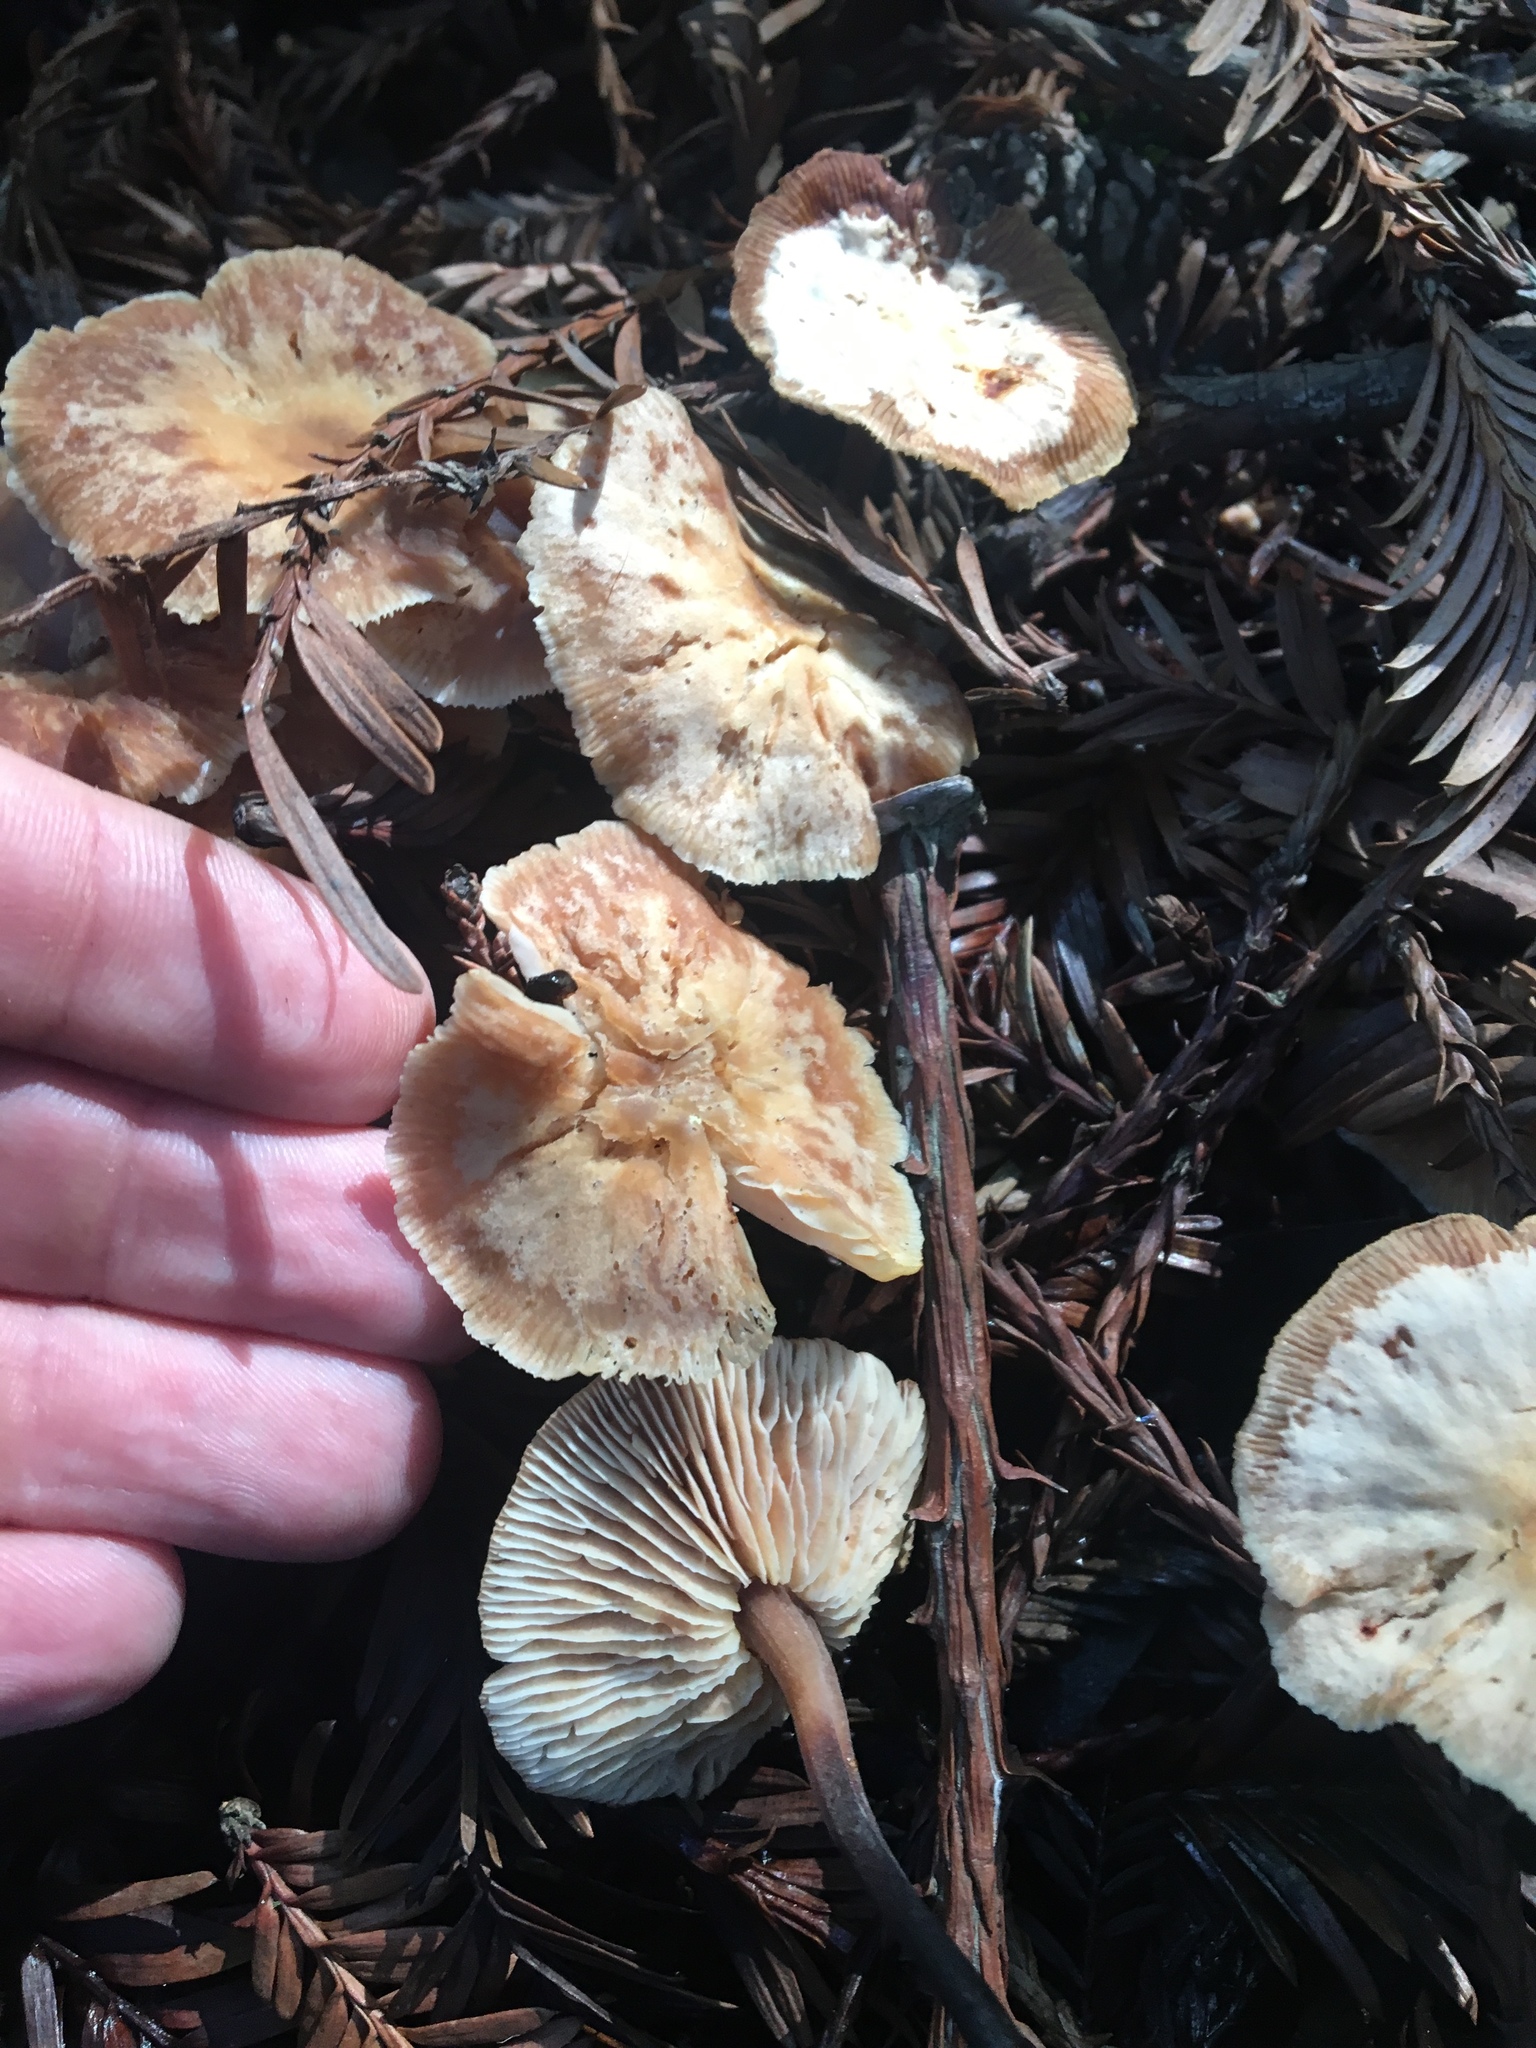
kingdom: Fungi
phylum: Basidiomycota
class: Agaricomycetes
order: Agaricales
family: Omphalotaceae
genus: Gymnopus
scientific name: Gymnopus brassicolens
